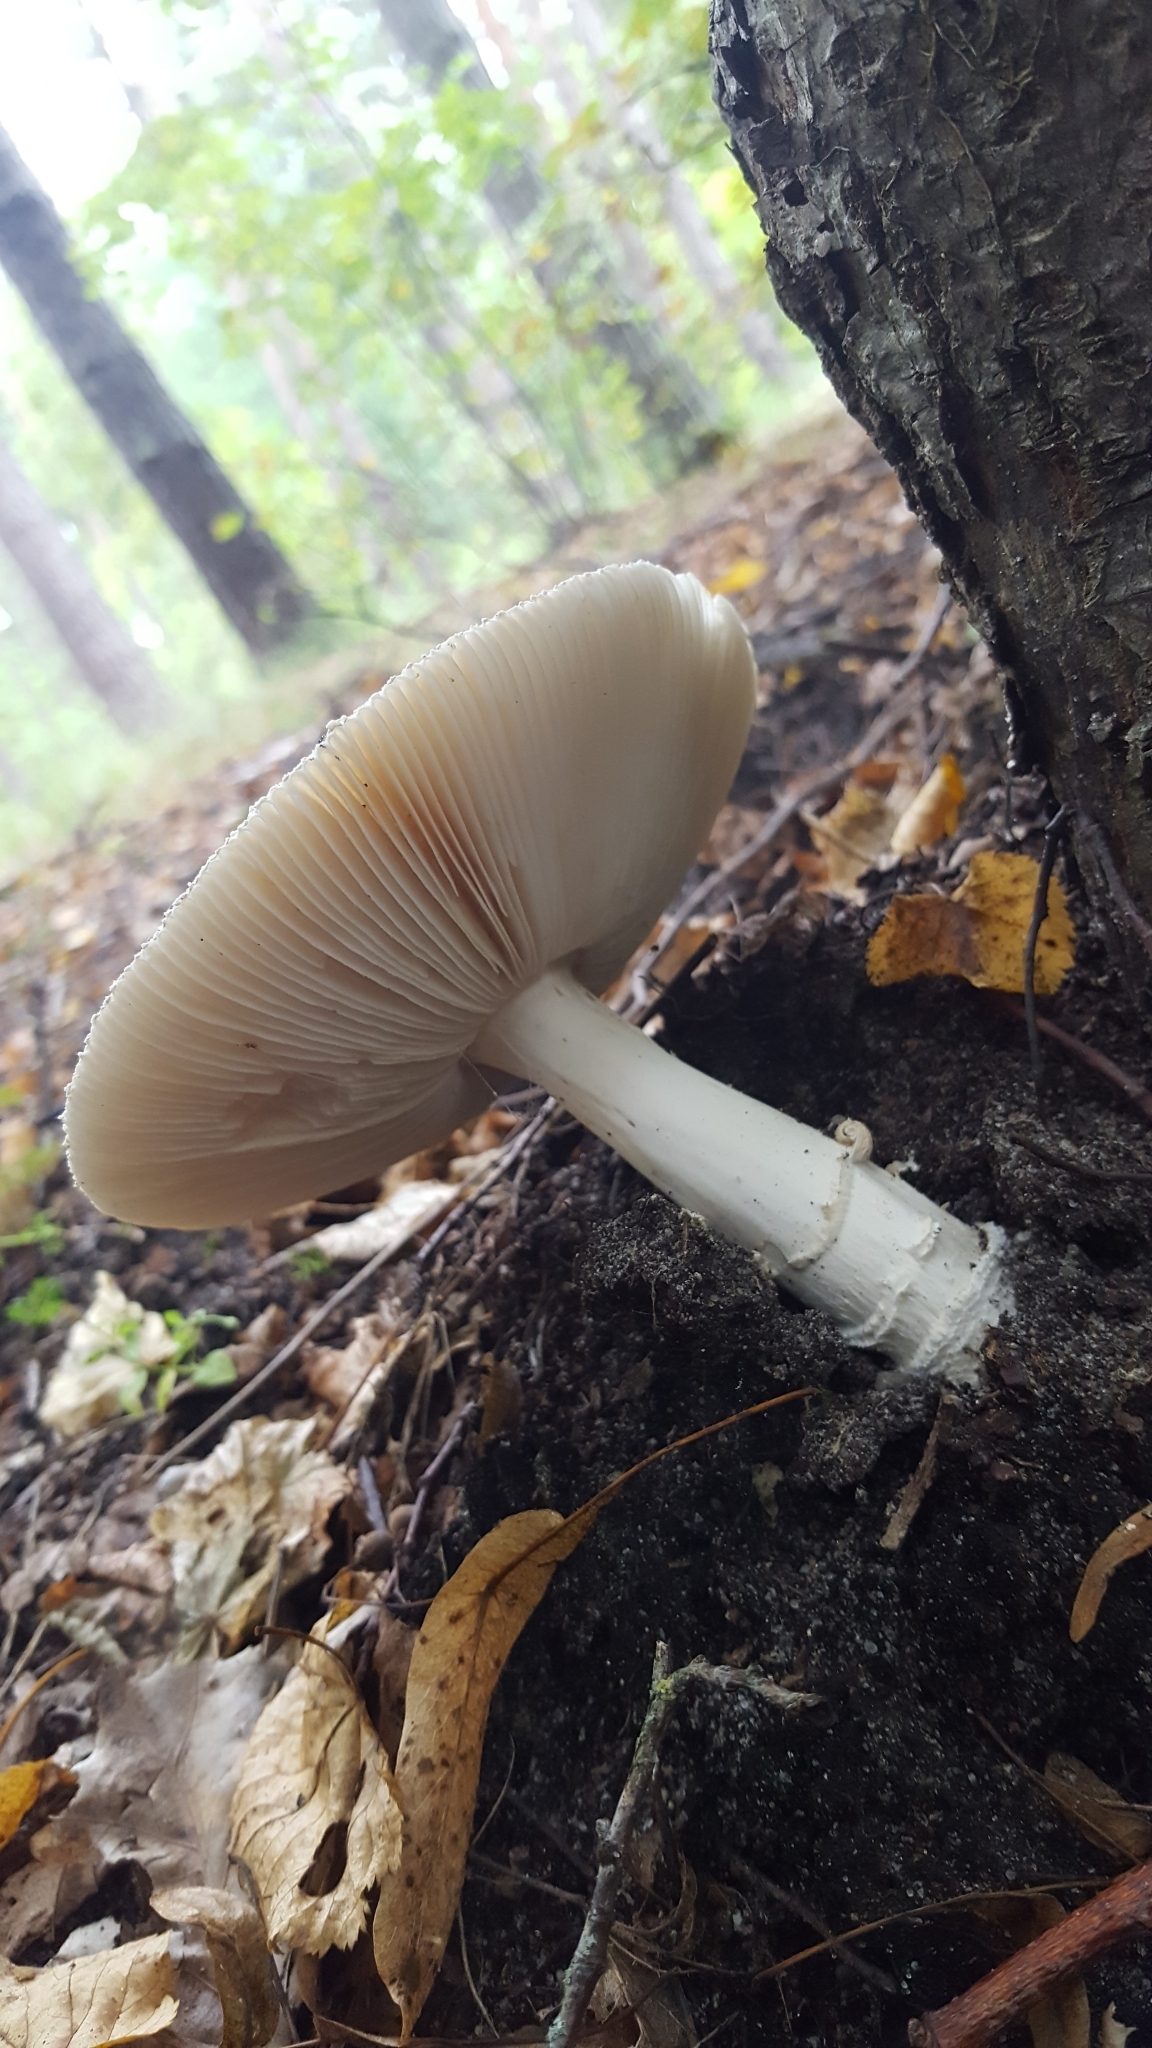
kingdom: Fungi
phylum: Basidiomycota
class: Agaricomycetes
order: Agaricales
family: Amanitaceae
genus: Amanita
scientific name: Amanita pantherina
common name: Panthercap
